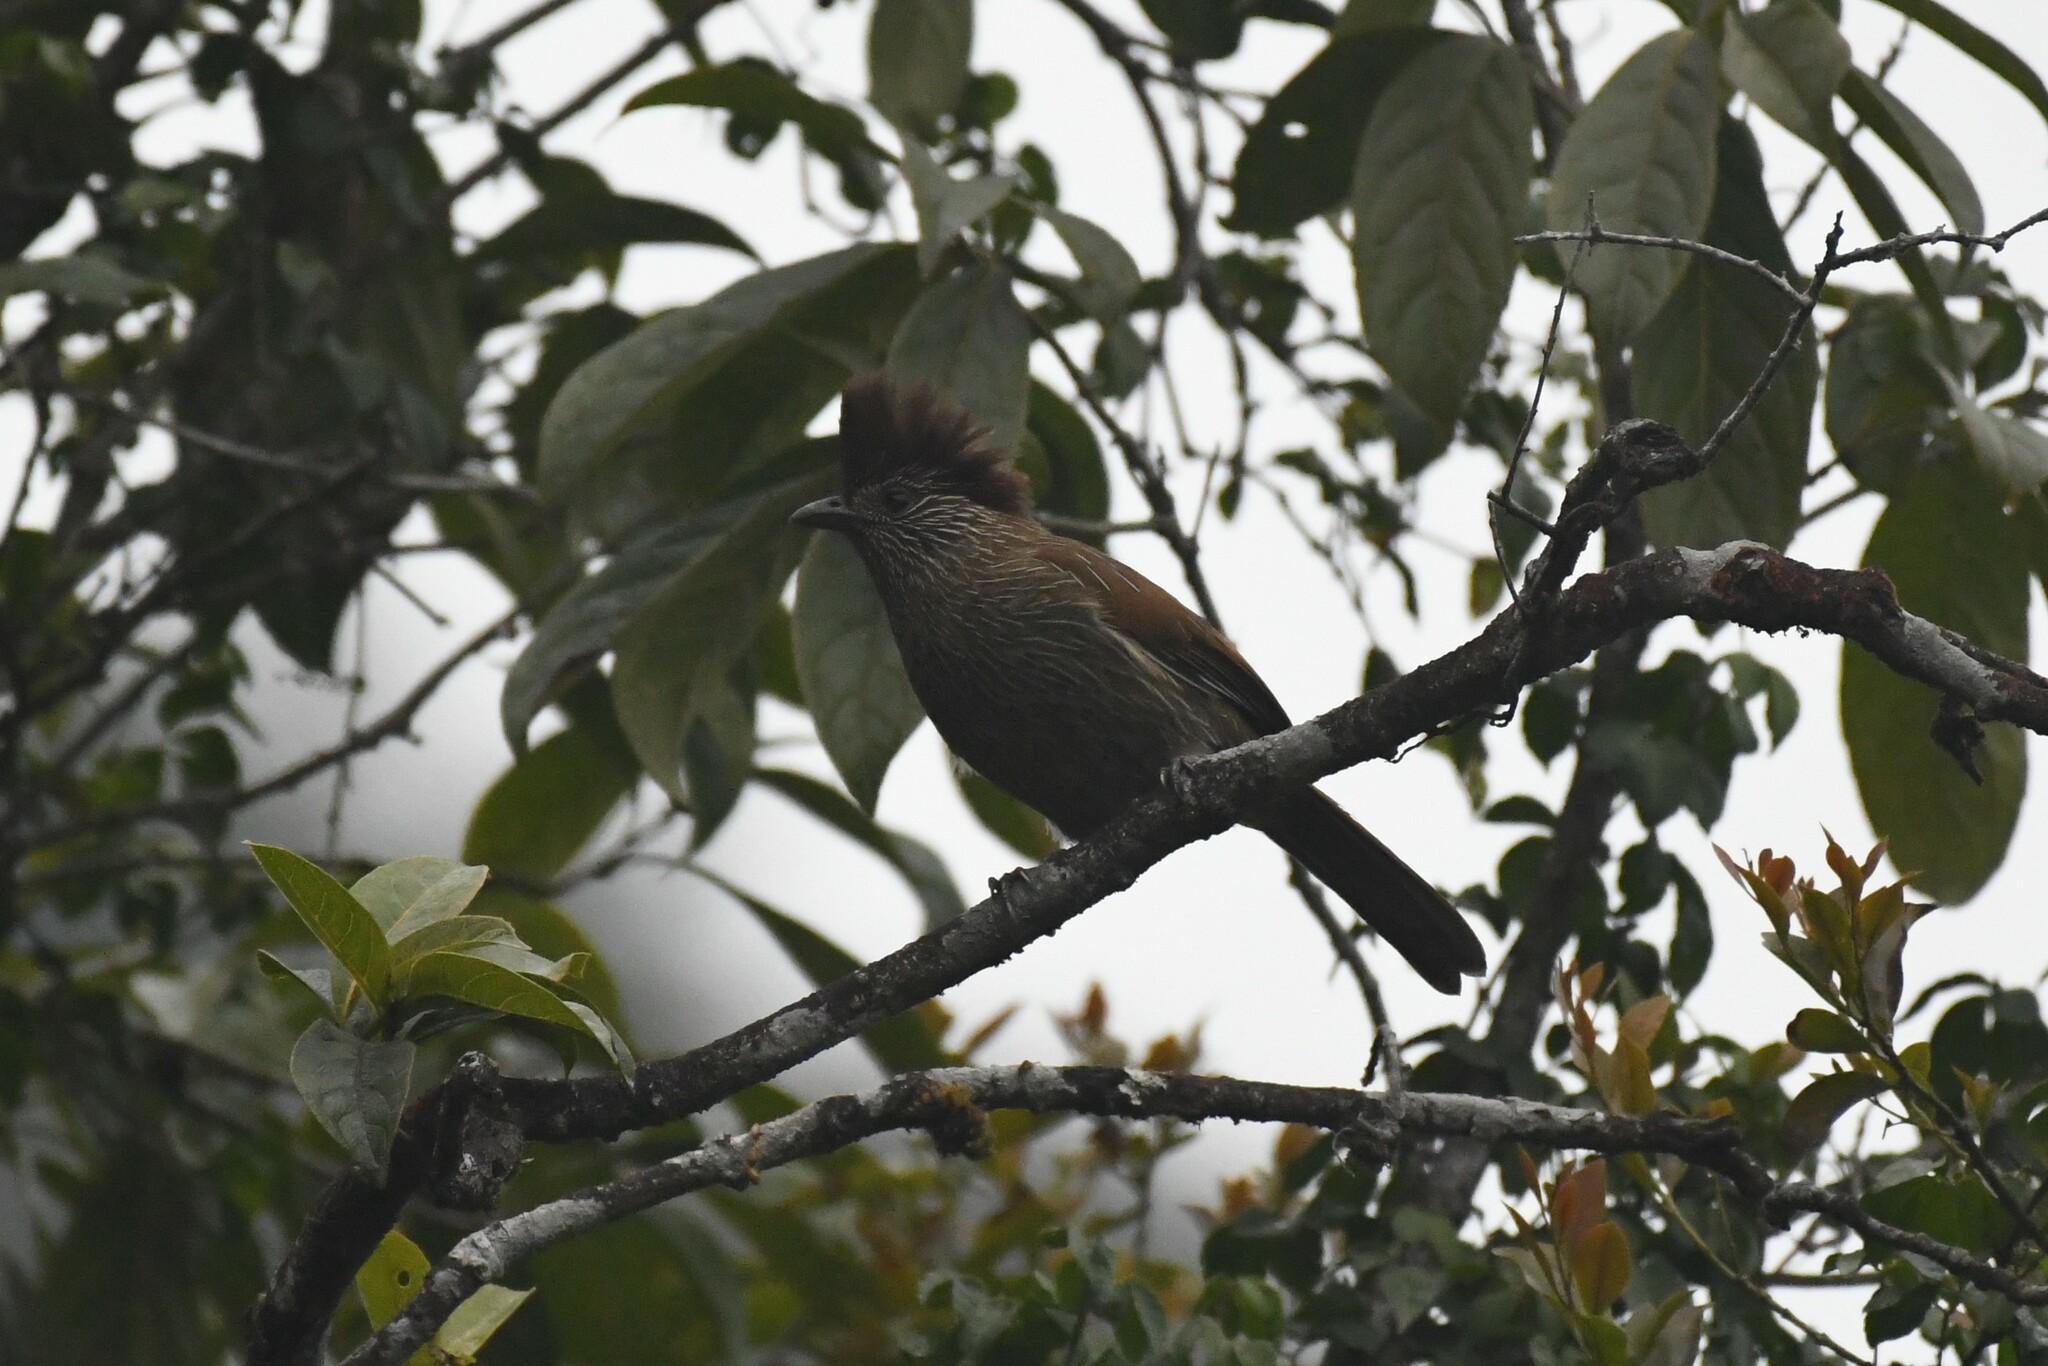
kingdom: Animalia
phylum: Chordata
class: Aves
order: Passeriformes
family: Leiothrichidae
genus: Garrulax
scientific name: Garrulax striatus
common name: Striated laughingthrush
